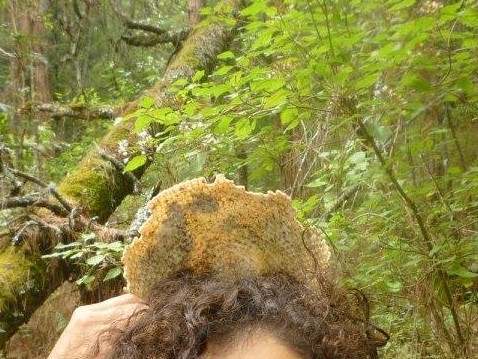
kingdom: Animalia
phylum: Chordata
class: Mammalia
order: Cingulata
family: Dasypodidae
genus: Dasypus
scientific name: Dasypus novemcinctus
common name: Nine-banded armadillo
